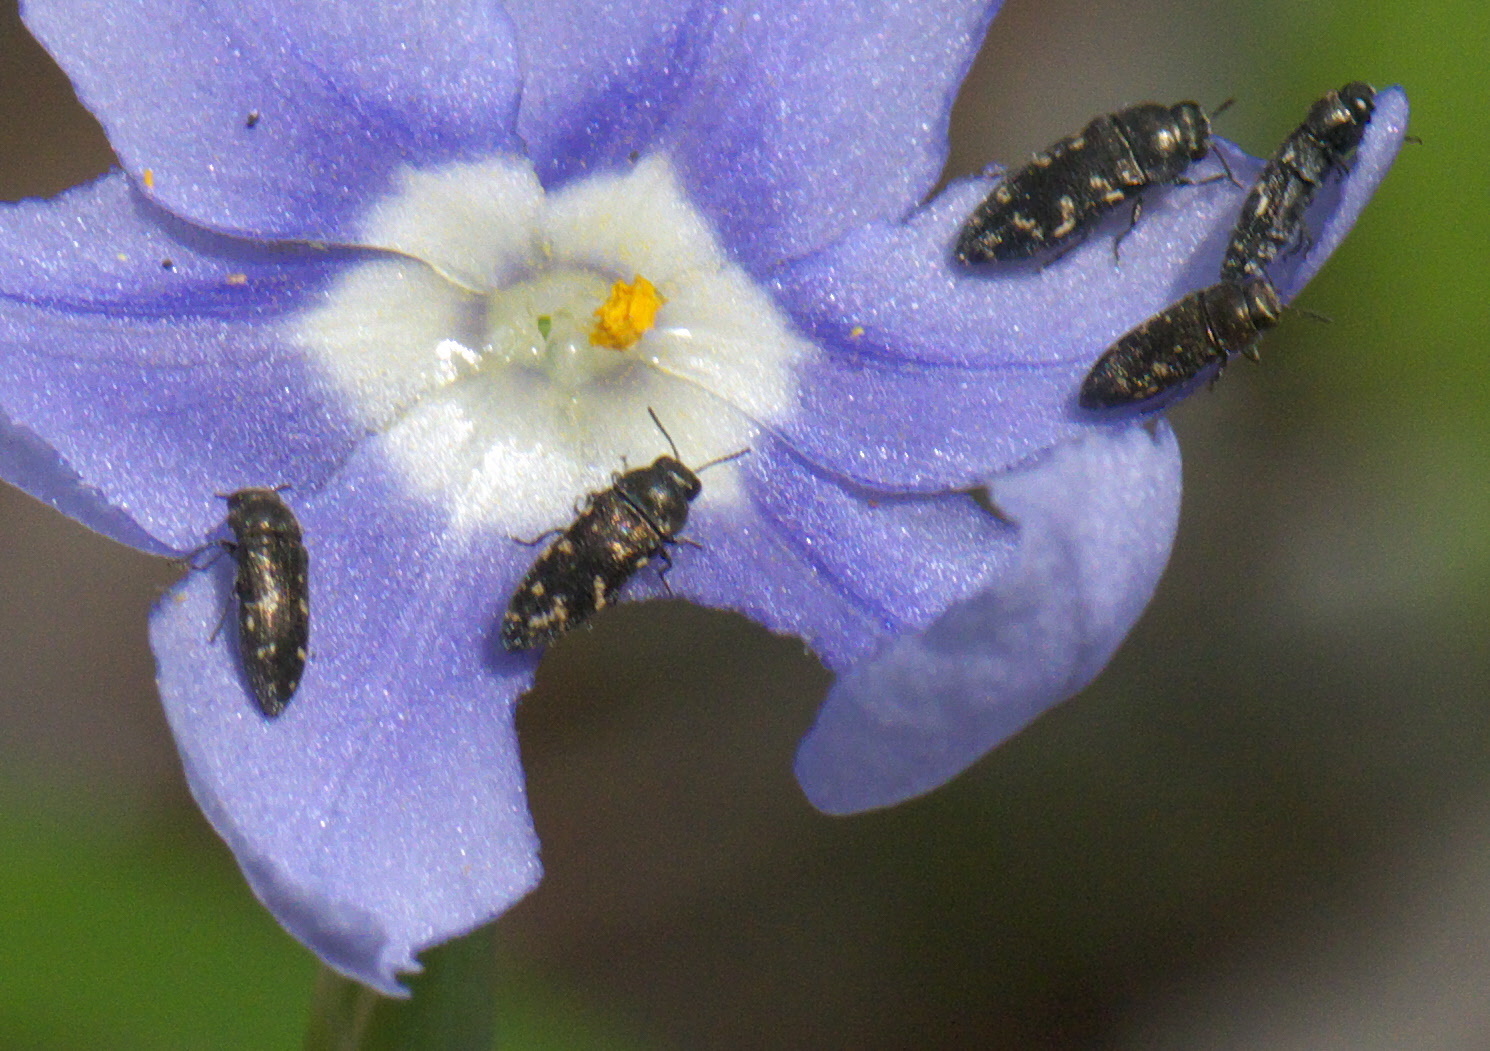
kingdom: Animalia
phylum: Arthropoda
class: Insecta
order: Coleoptera
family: Buprestidae
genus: Acmaeodera
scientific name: Acmaeodera tubulus
